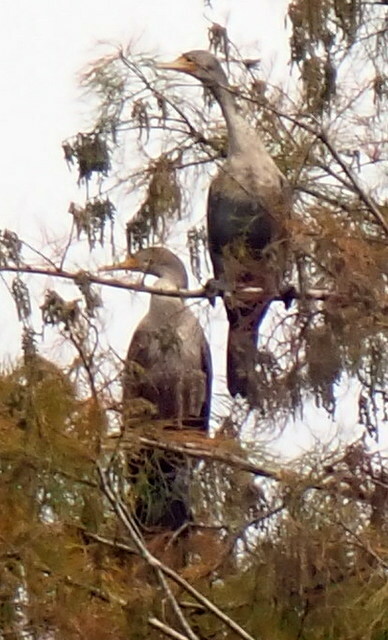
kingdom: Animalia
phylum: Chordata
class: Aves
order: Suliformes
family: Phalacrocoracidae
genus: Phalacrocorax
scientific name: Phalacrocorax auritus
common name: Double-crested cormorant
